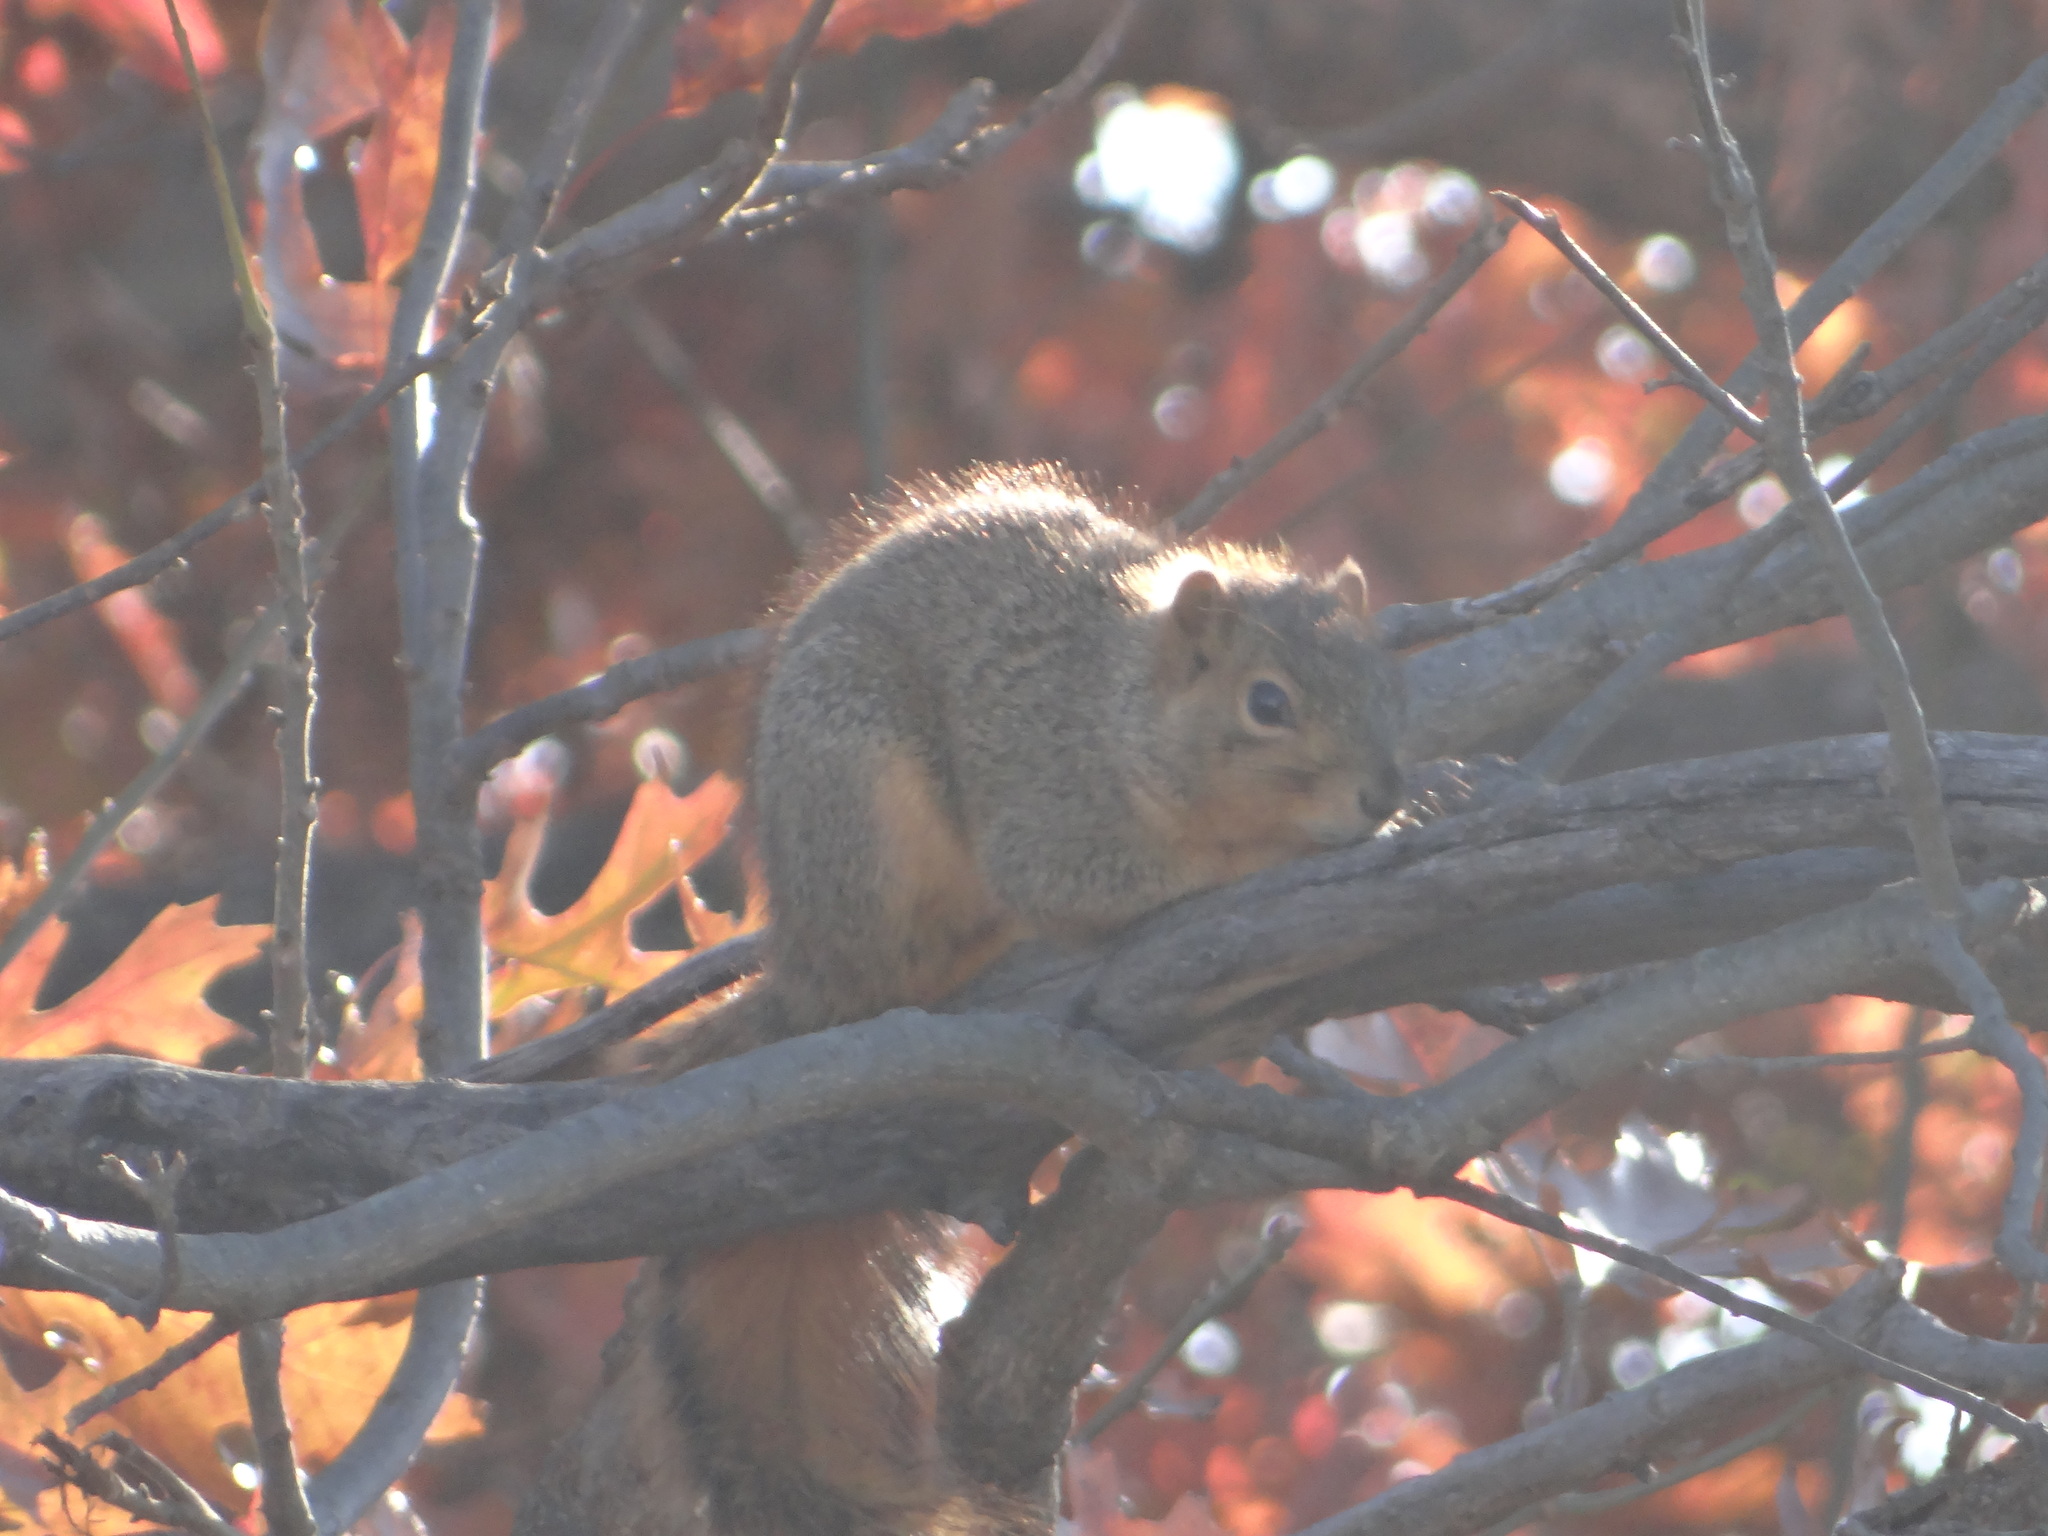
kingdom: Animalia
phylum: Chordata
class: Mammalia
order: Rodentia
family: Sciuridae
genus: Sciurus
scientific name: Sciurus niger
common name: Fox squirrel
